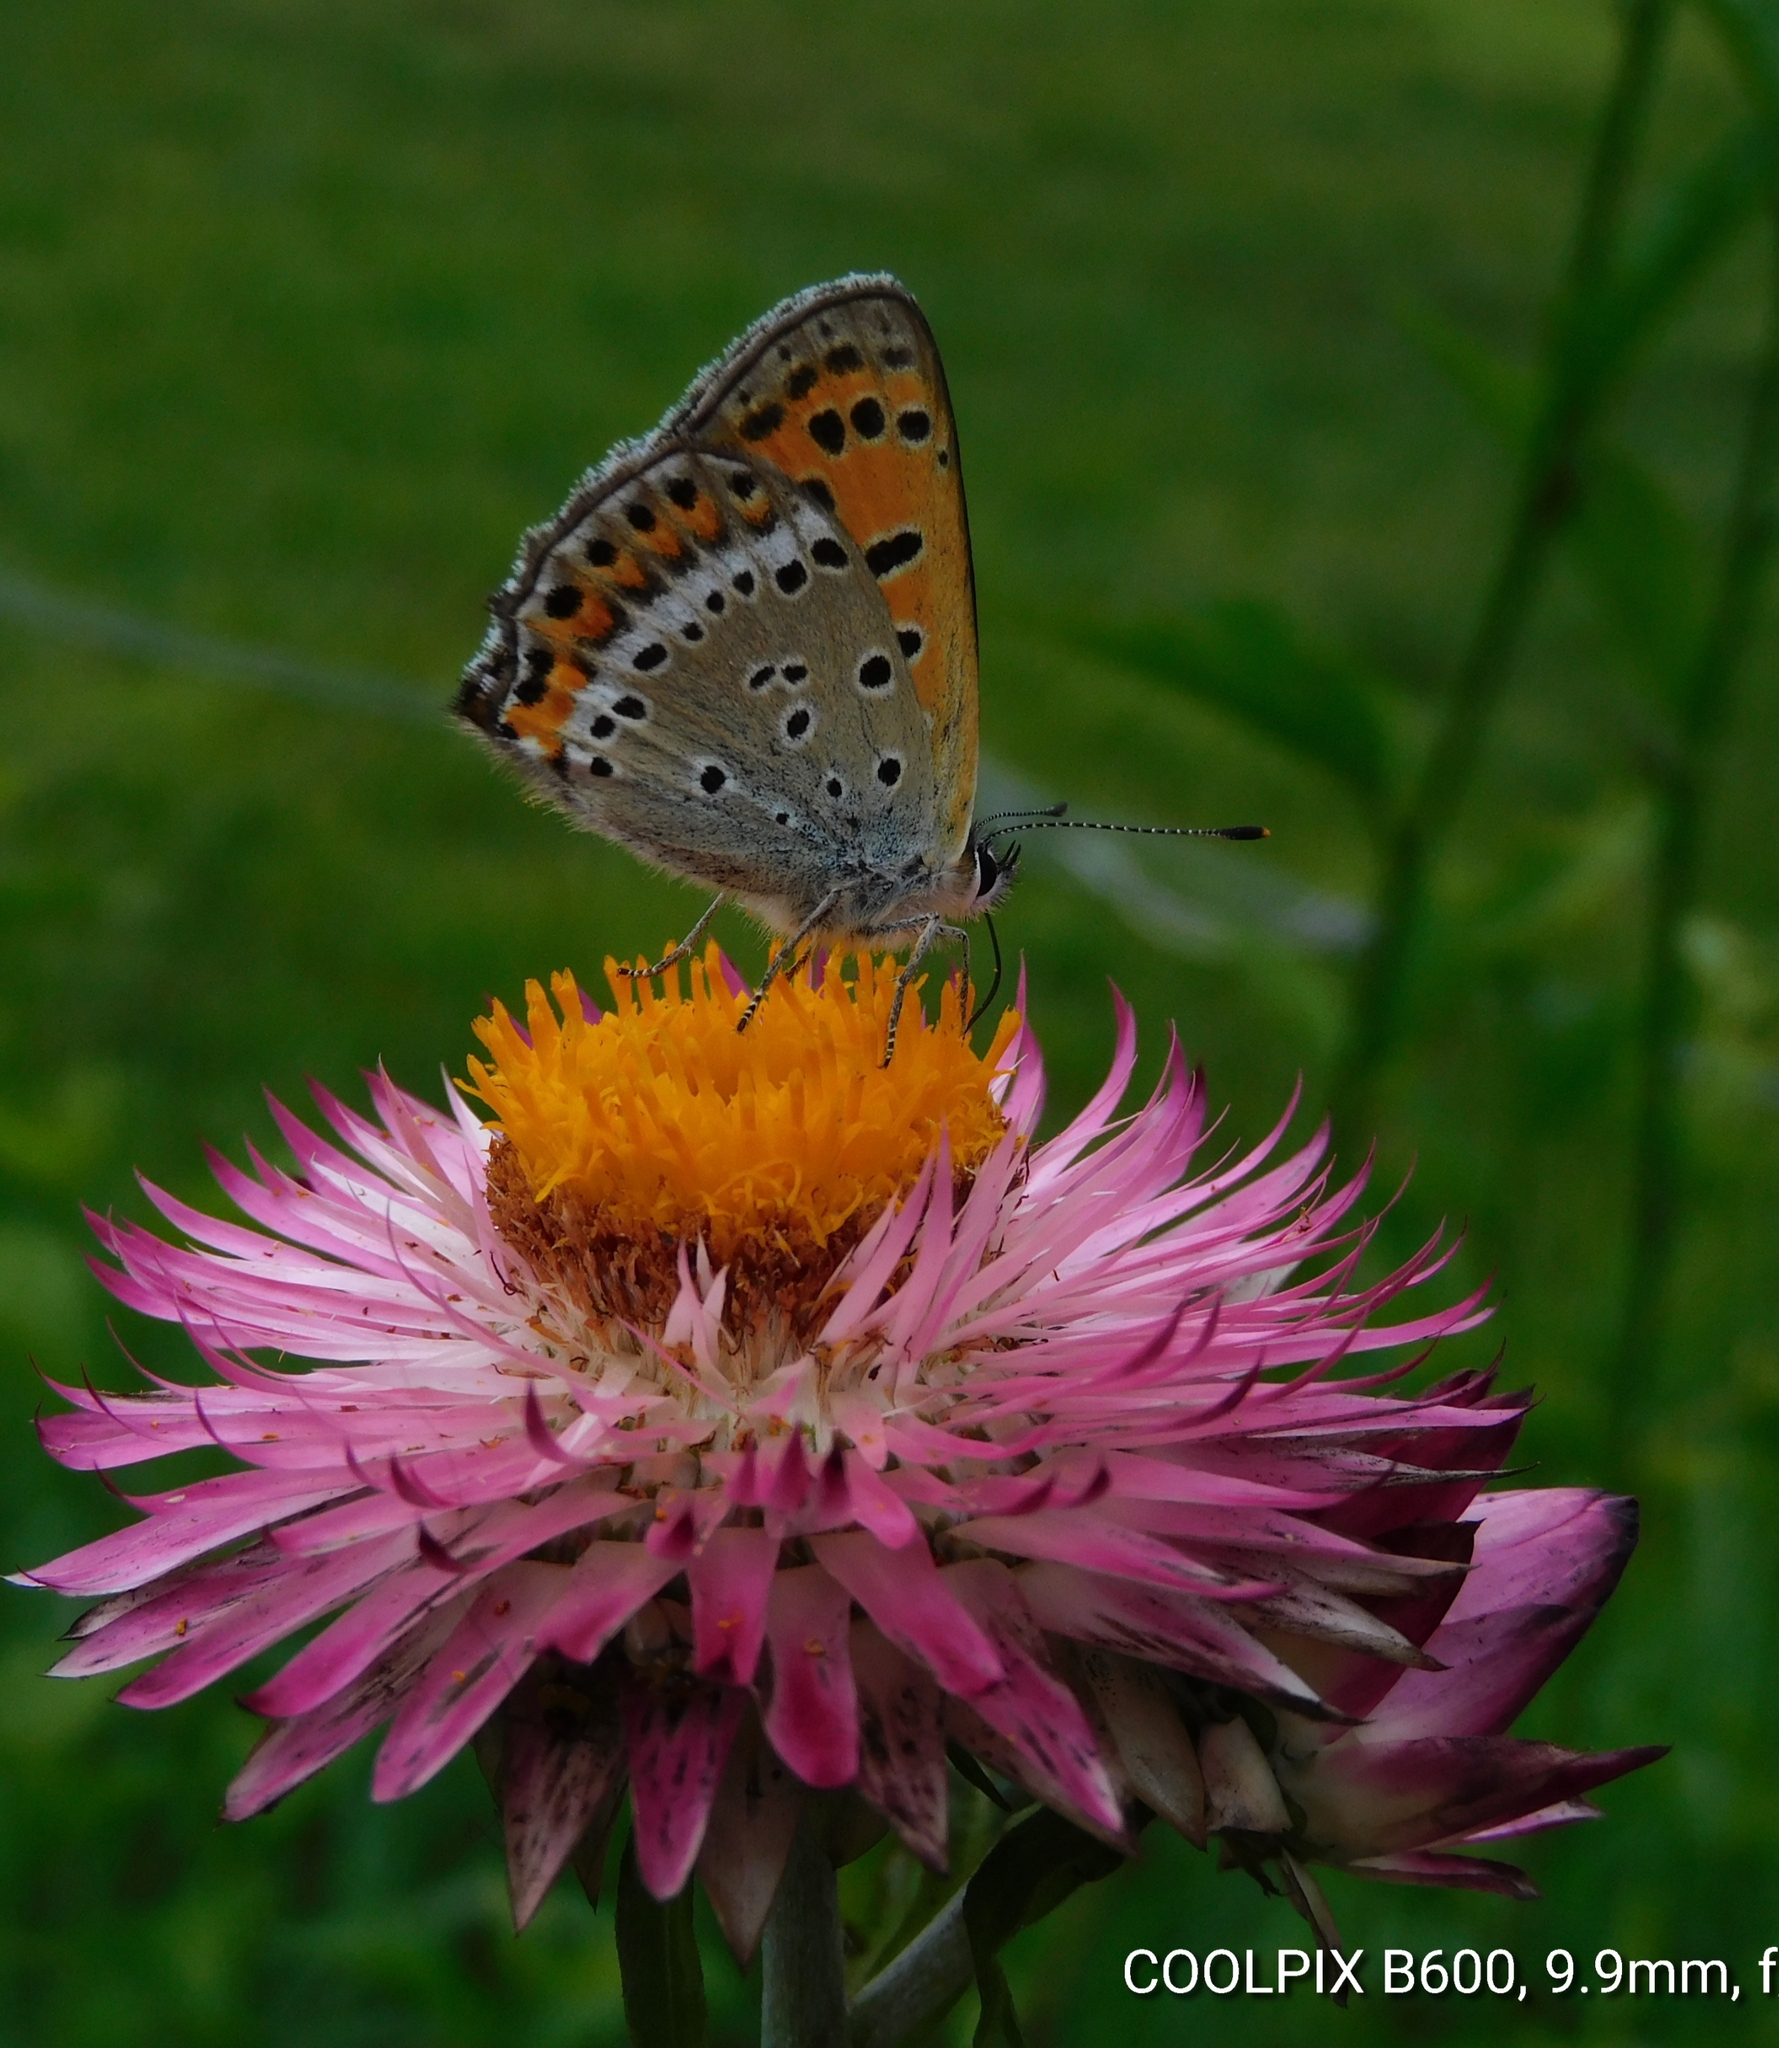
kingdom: Animalia
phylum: Arthropoda
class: Insecta
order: Lepidoptera
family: Lycaenidae
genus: Lycaena
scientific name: Lycaena panava
